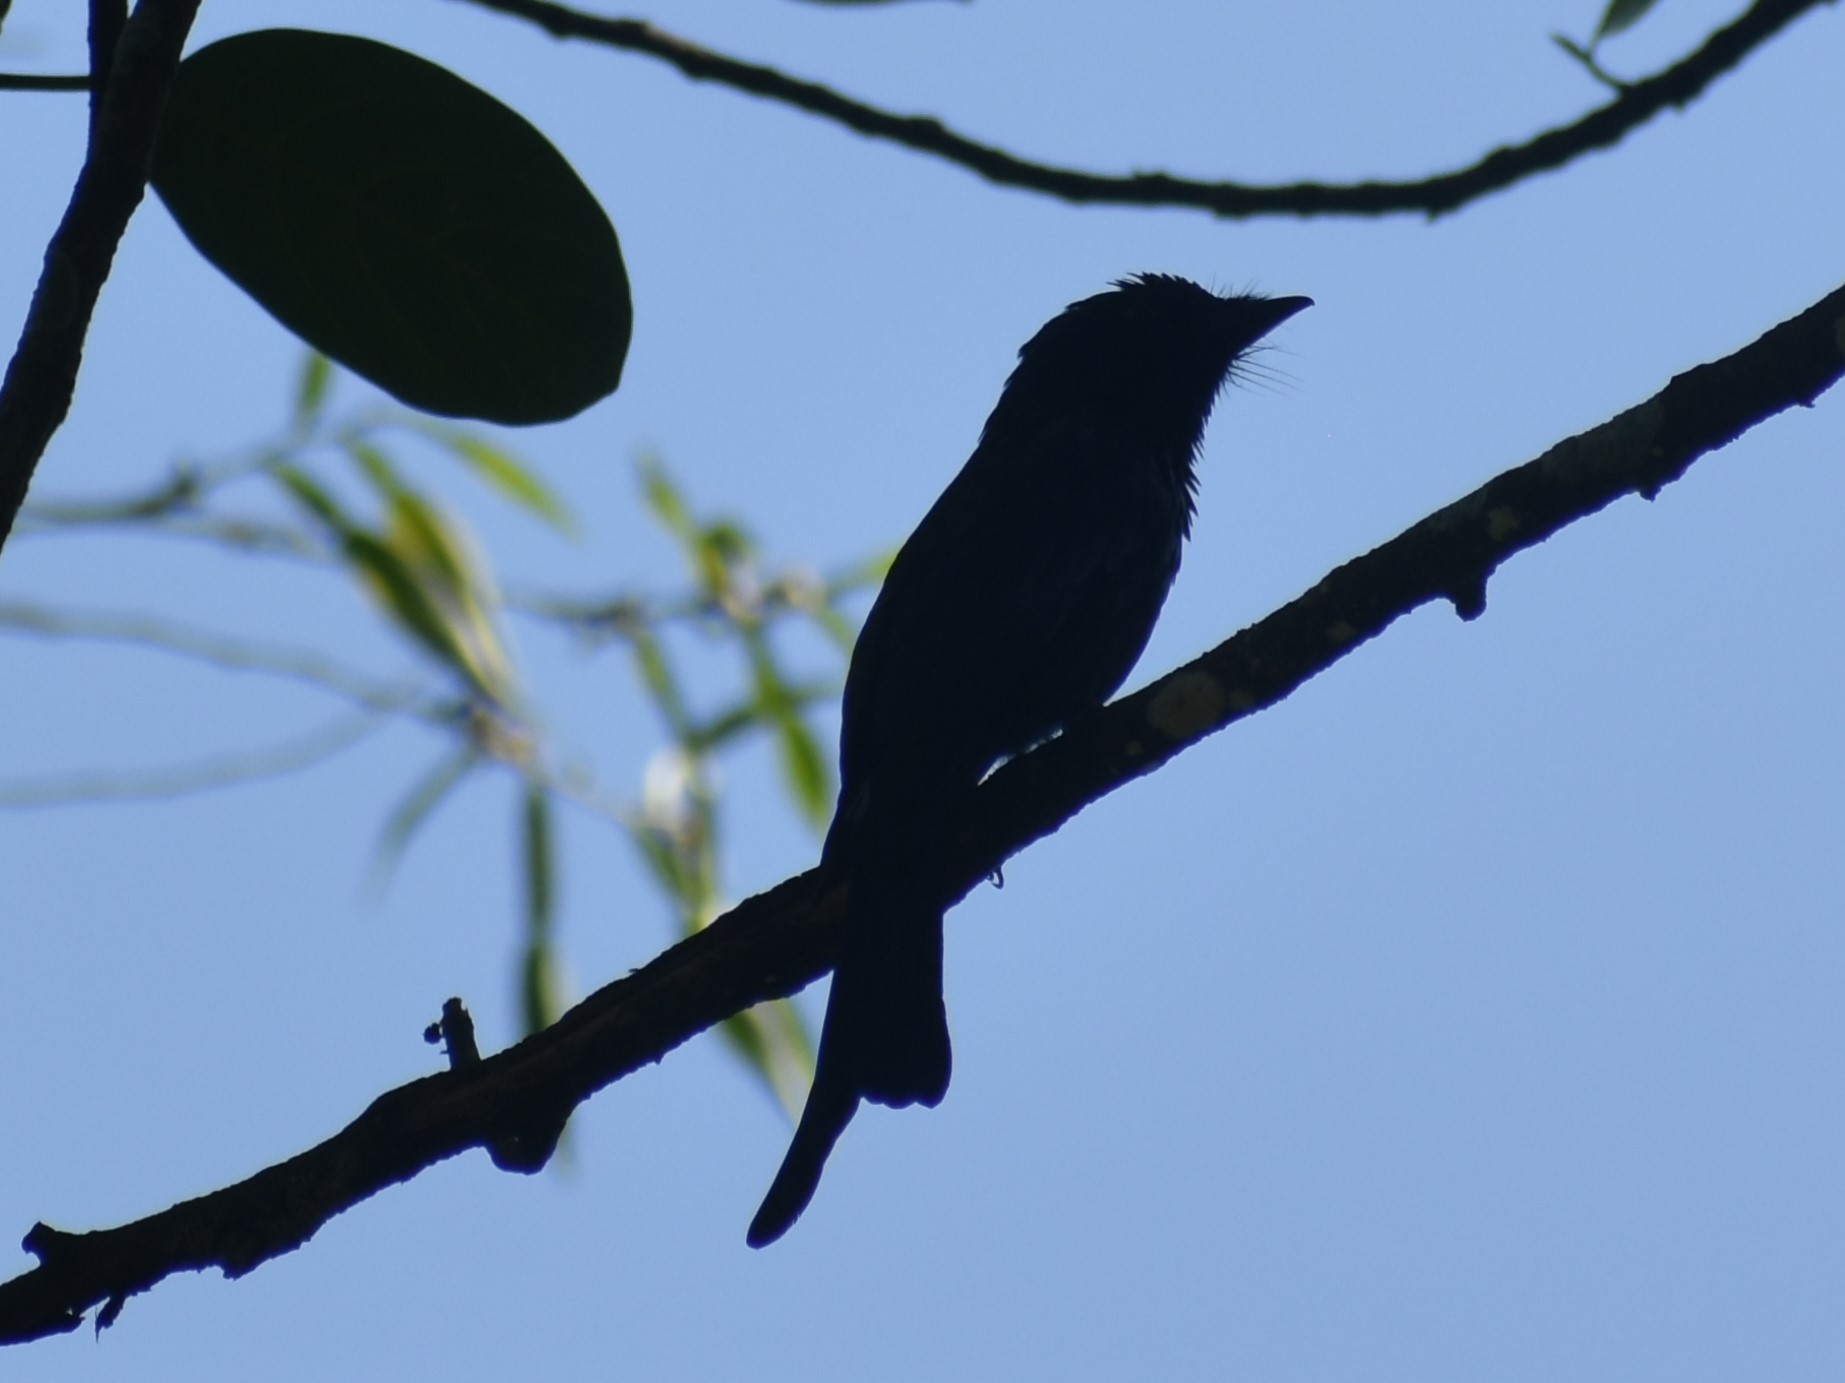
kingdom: Animalia
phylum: Chordata
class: Aves
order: Passeriformes
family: Dicruridae
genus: Dicrurus
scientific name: Dicrurus aeneus
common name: Bronzed drongo
